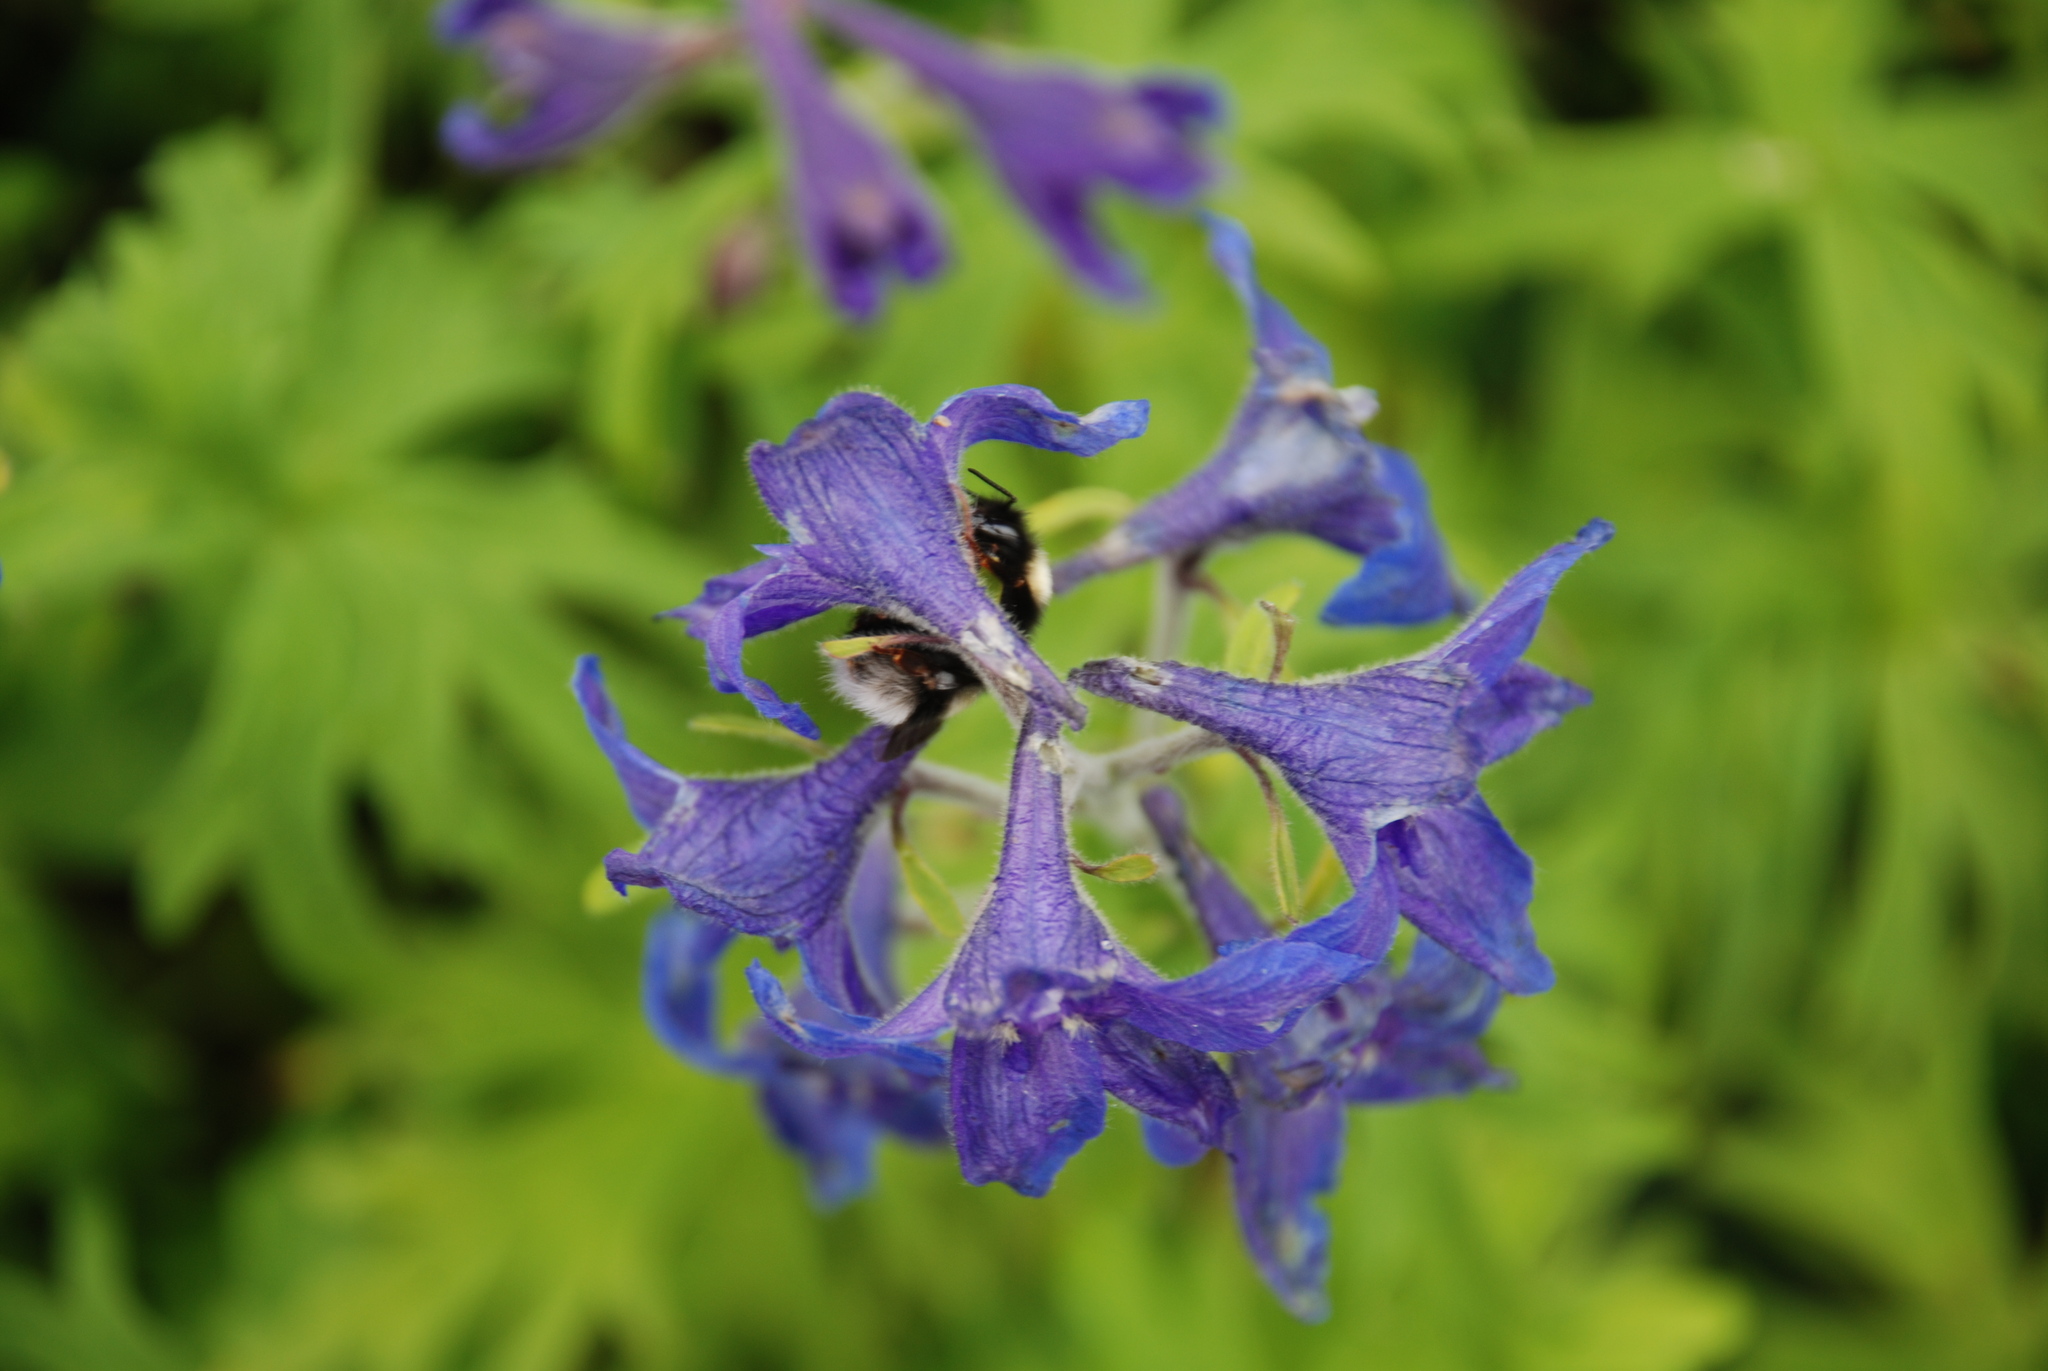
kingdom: Animalia
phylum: Arthropoda
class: Insecta
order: Hymenoptera
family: Apidae
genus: Bombus
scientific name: Bombus cryptarum
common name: Cryptic bumblebee
